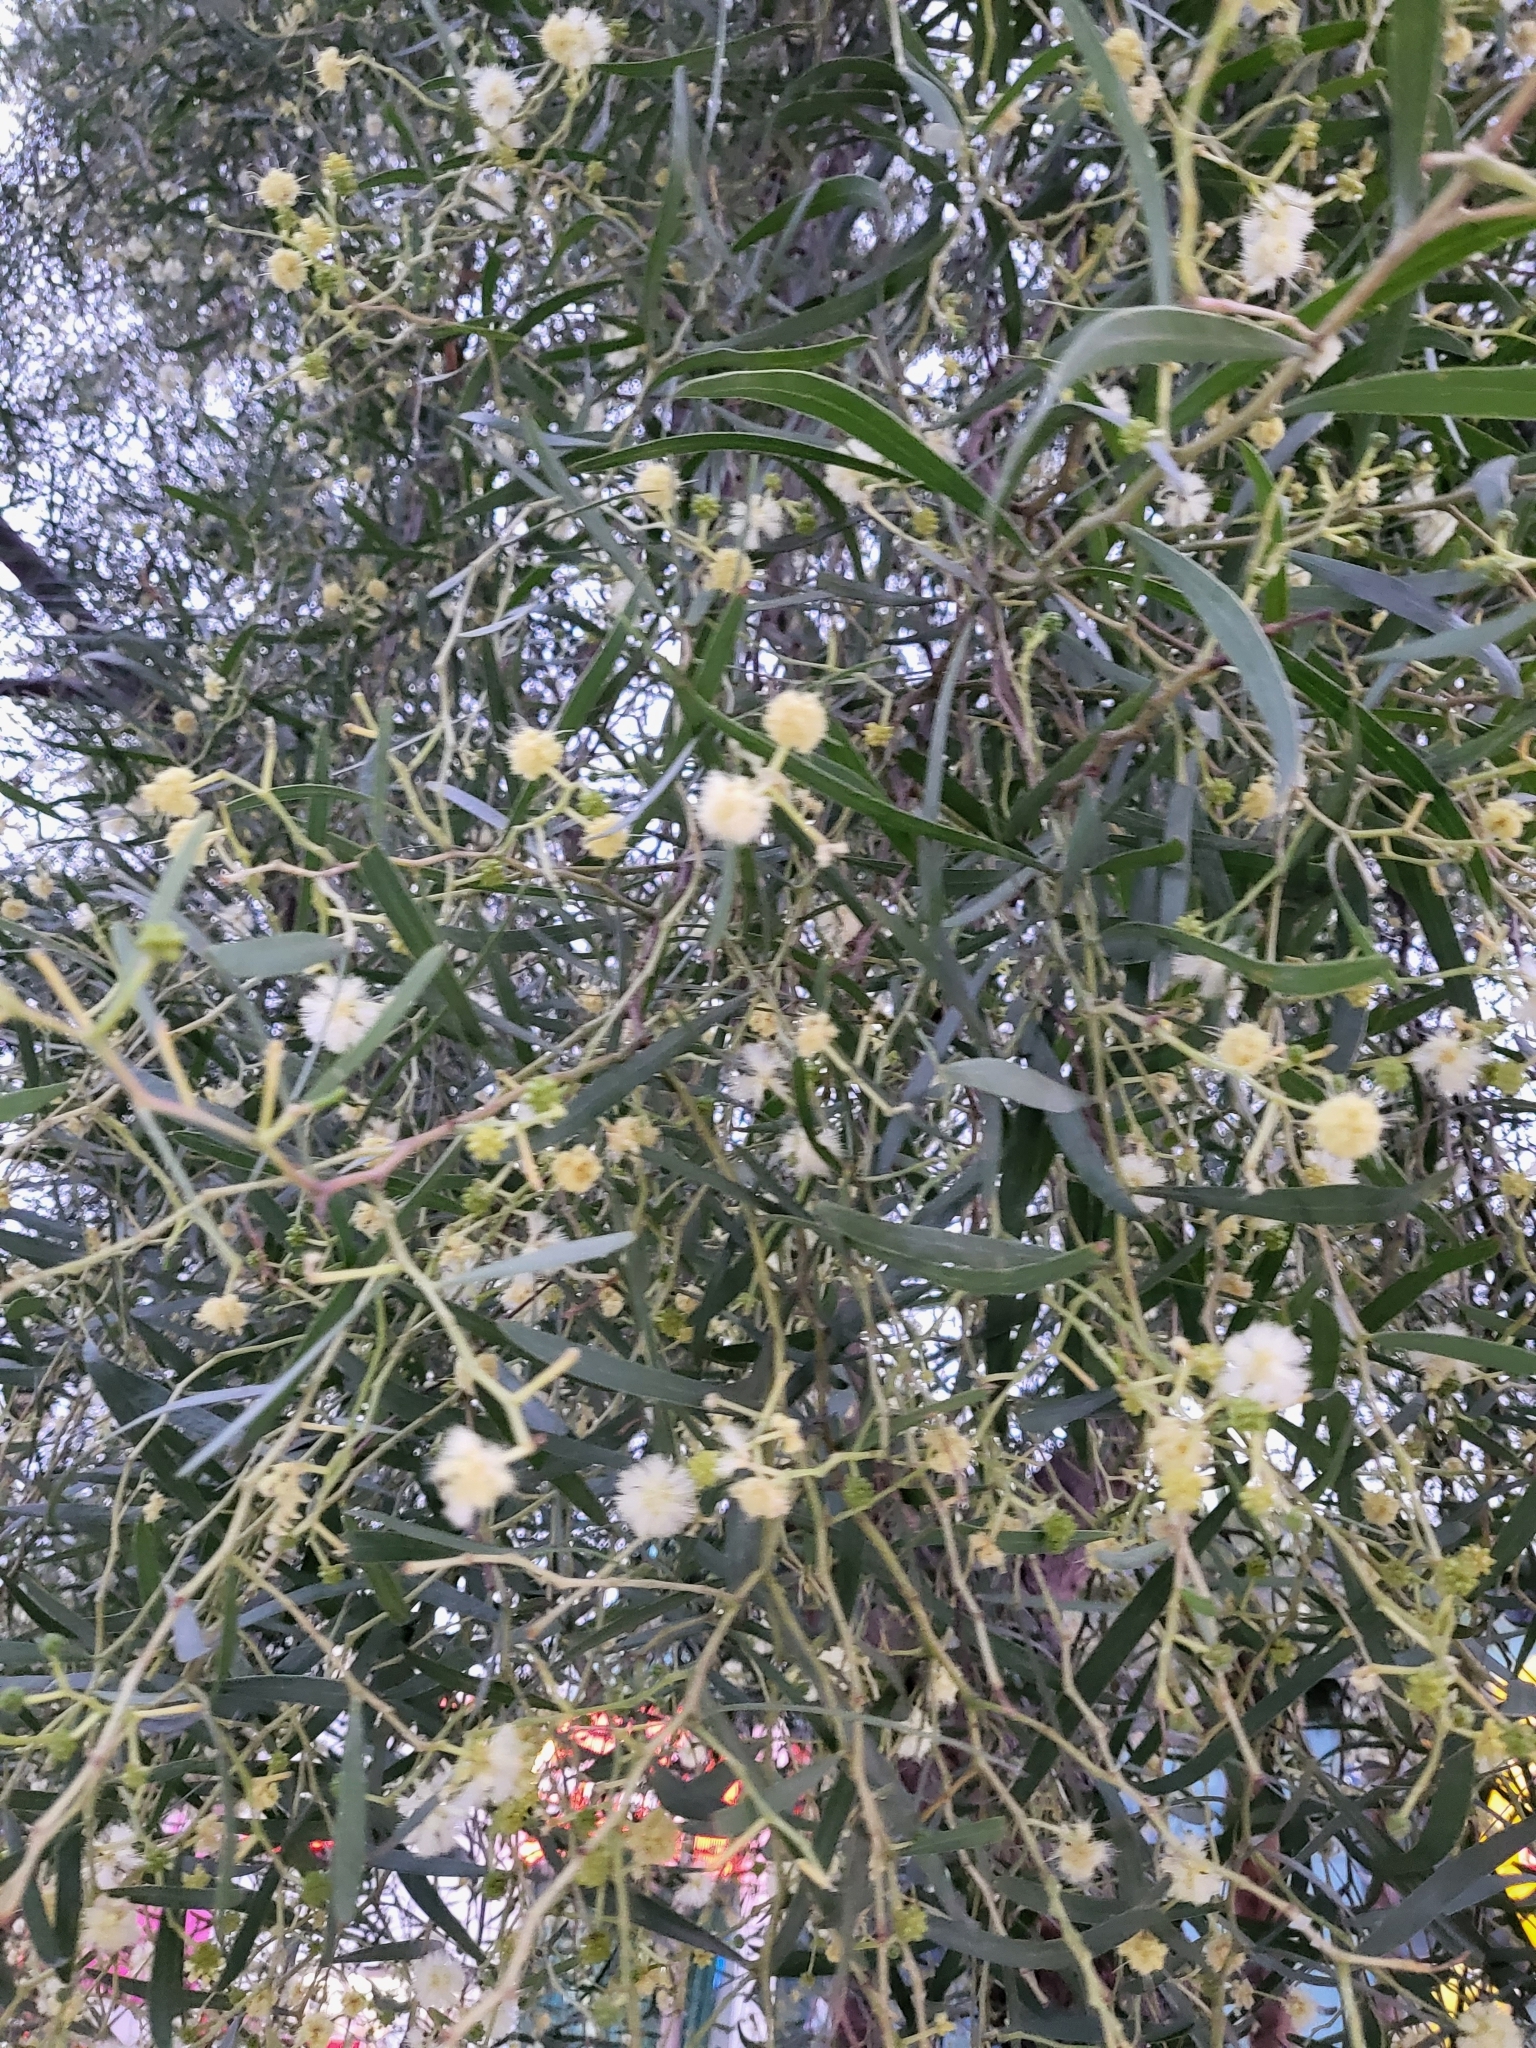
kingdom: Plantae
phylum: Tracheophyta
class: Magnoliopsida
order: Fabales
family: Fabaceae
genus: Acacia
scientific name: Acacia salicina
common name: Broughton willow wattle
